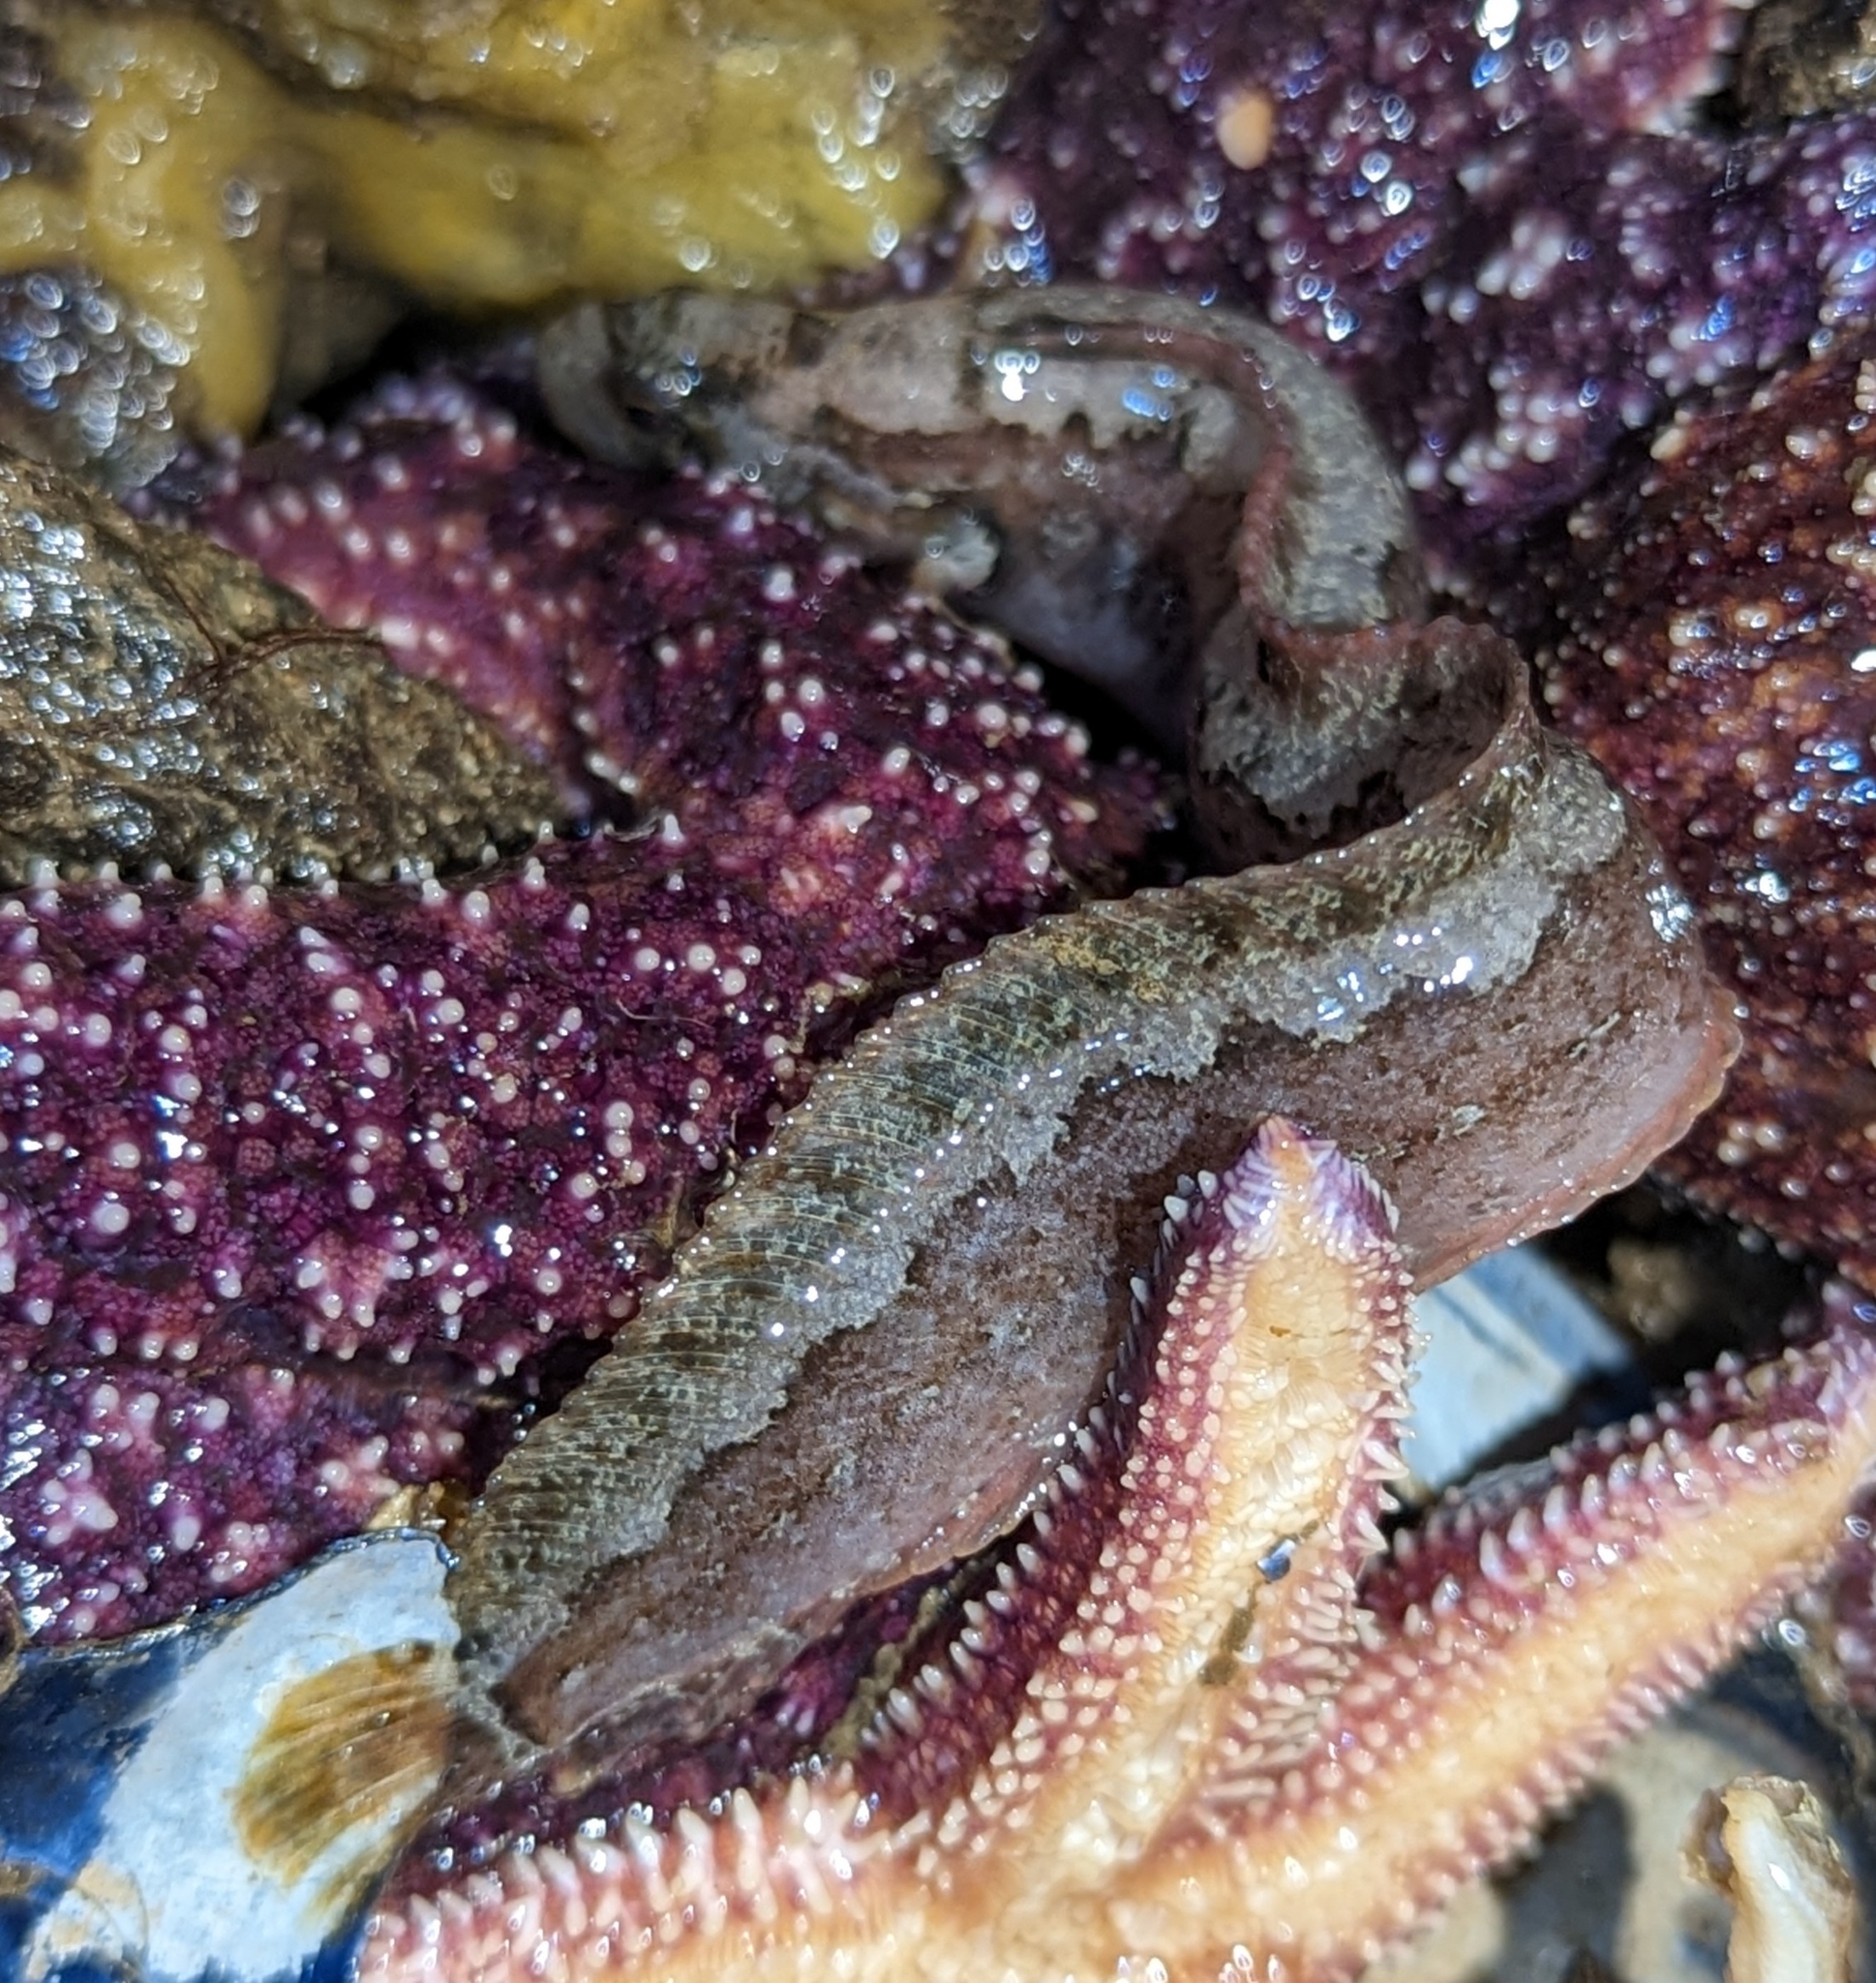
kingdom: Animalia
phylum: Chordata
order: Perciformes
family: Stichaeidae
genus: Anoplarchus
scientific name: Anoplarchus purpurescens
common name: High cockscomb
